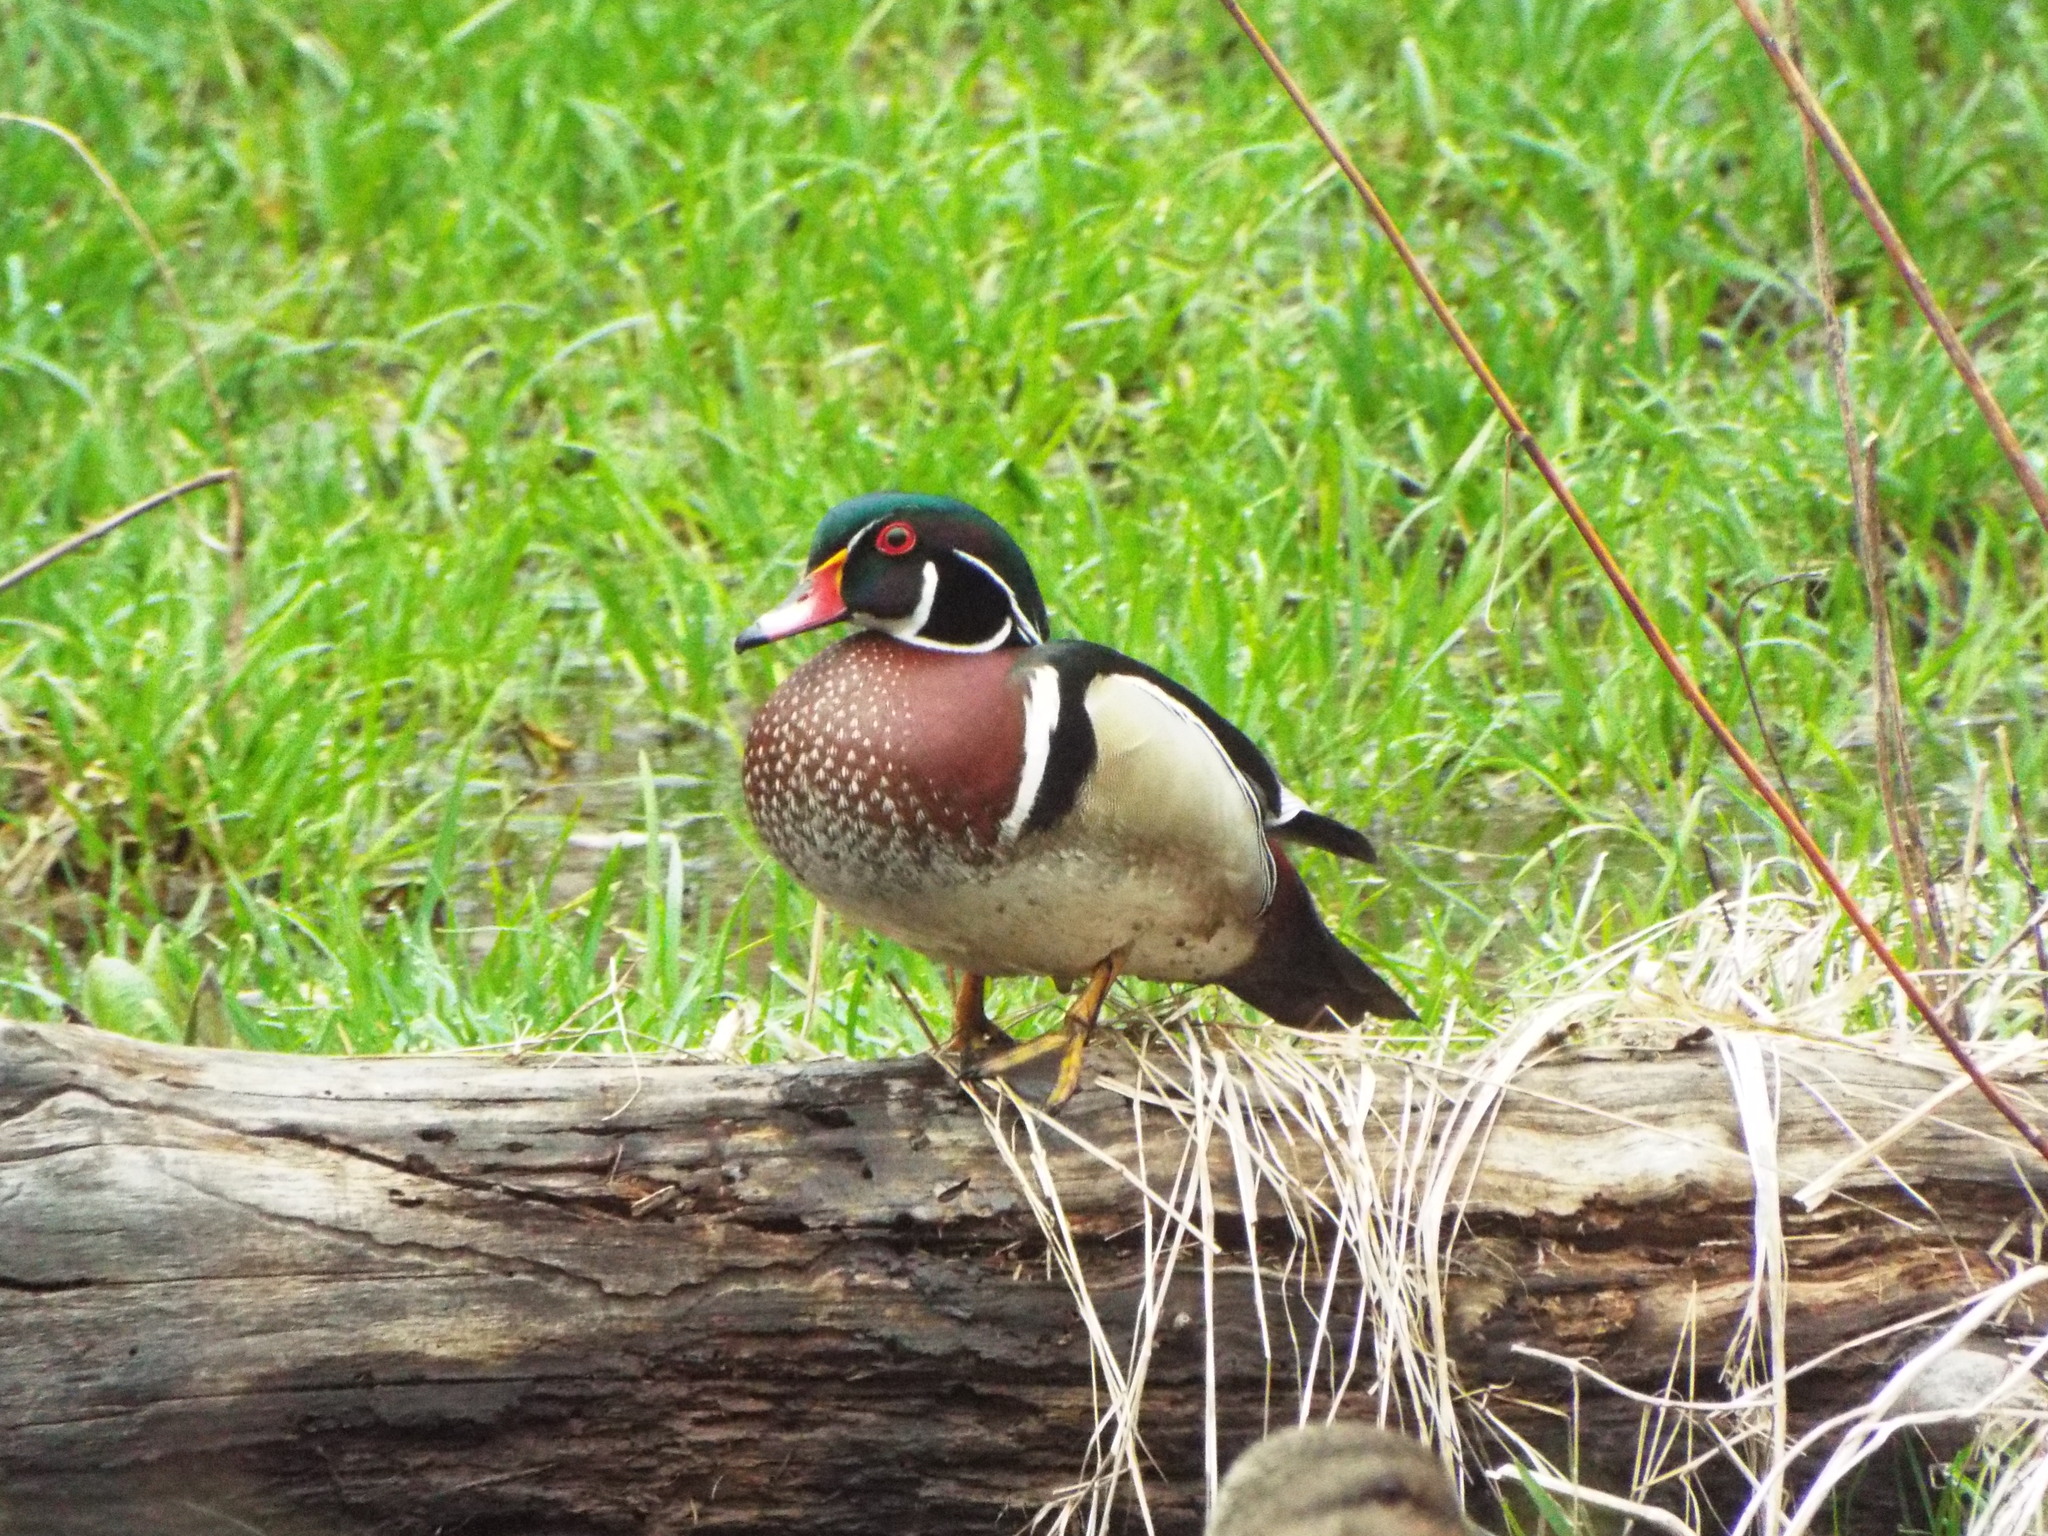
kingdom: Animalia
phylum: Chordata
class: Aves
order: Anseriformes
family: Anatidae
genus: Aix
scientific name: Aix sponsa
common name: Wood duck
